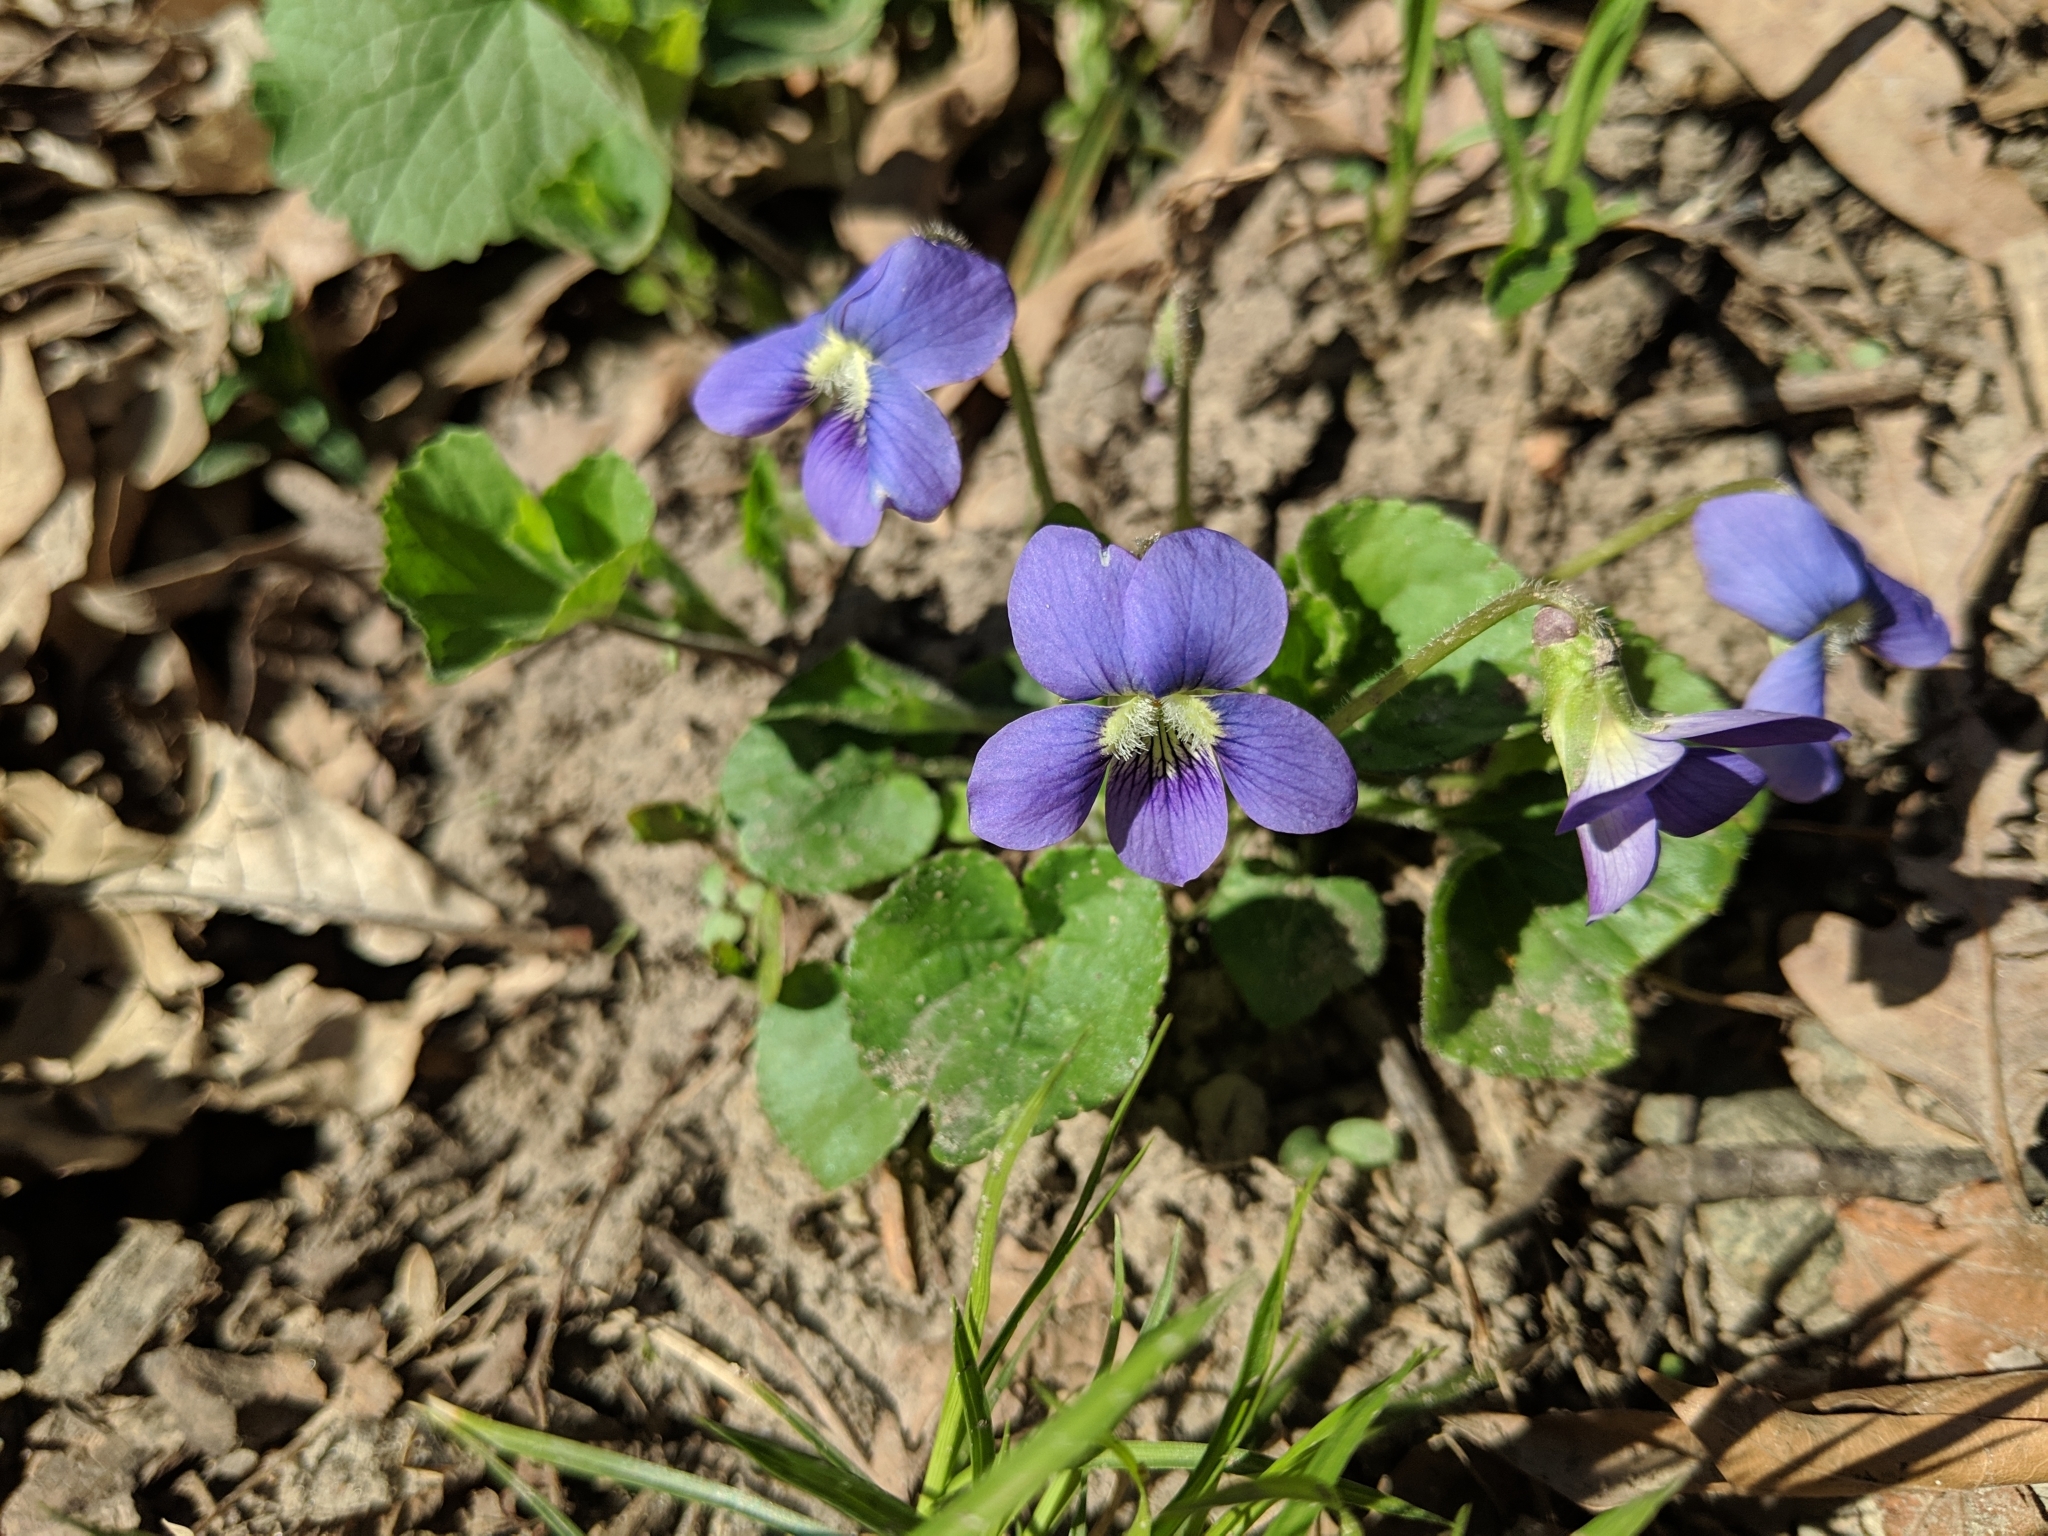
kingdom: Plantae
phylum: Tracheophyta
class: Magnoliopsida
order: Malpighiales
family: Violaceae
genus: Viola
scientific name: Viola sororia
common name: Dooryard violet
